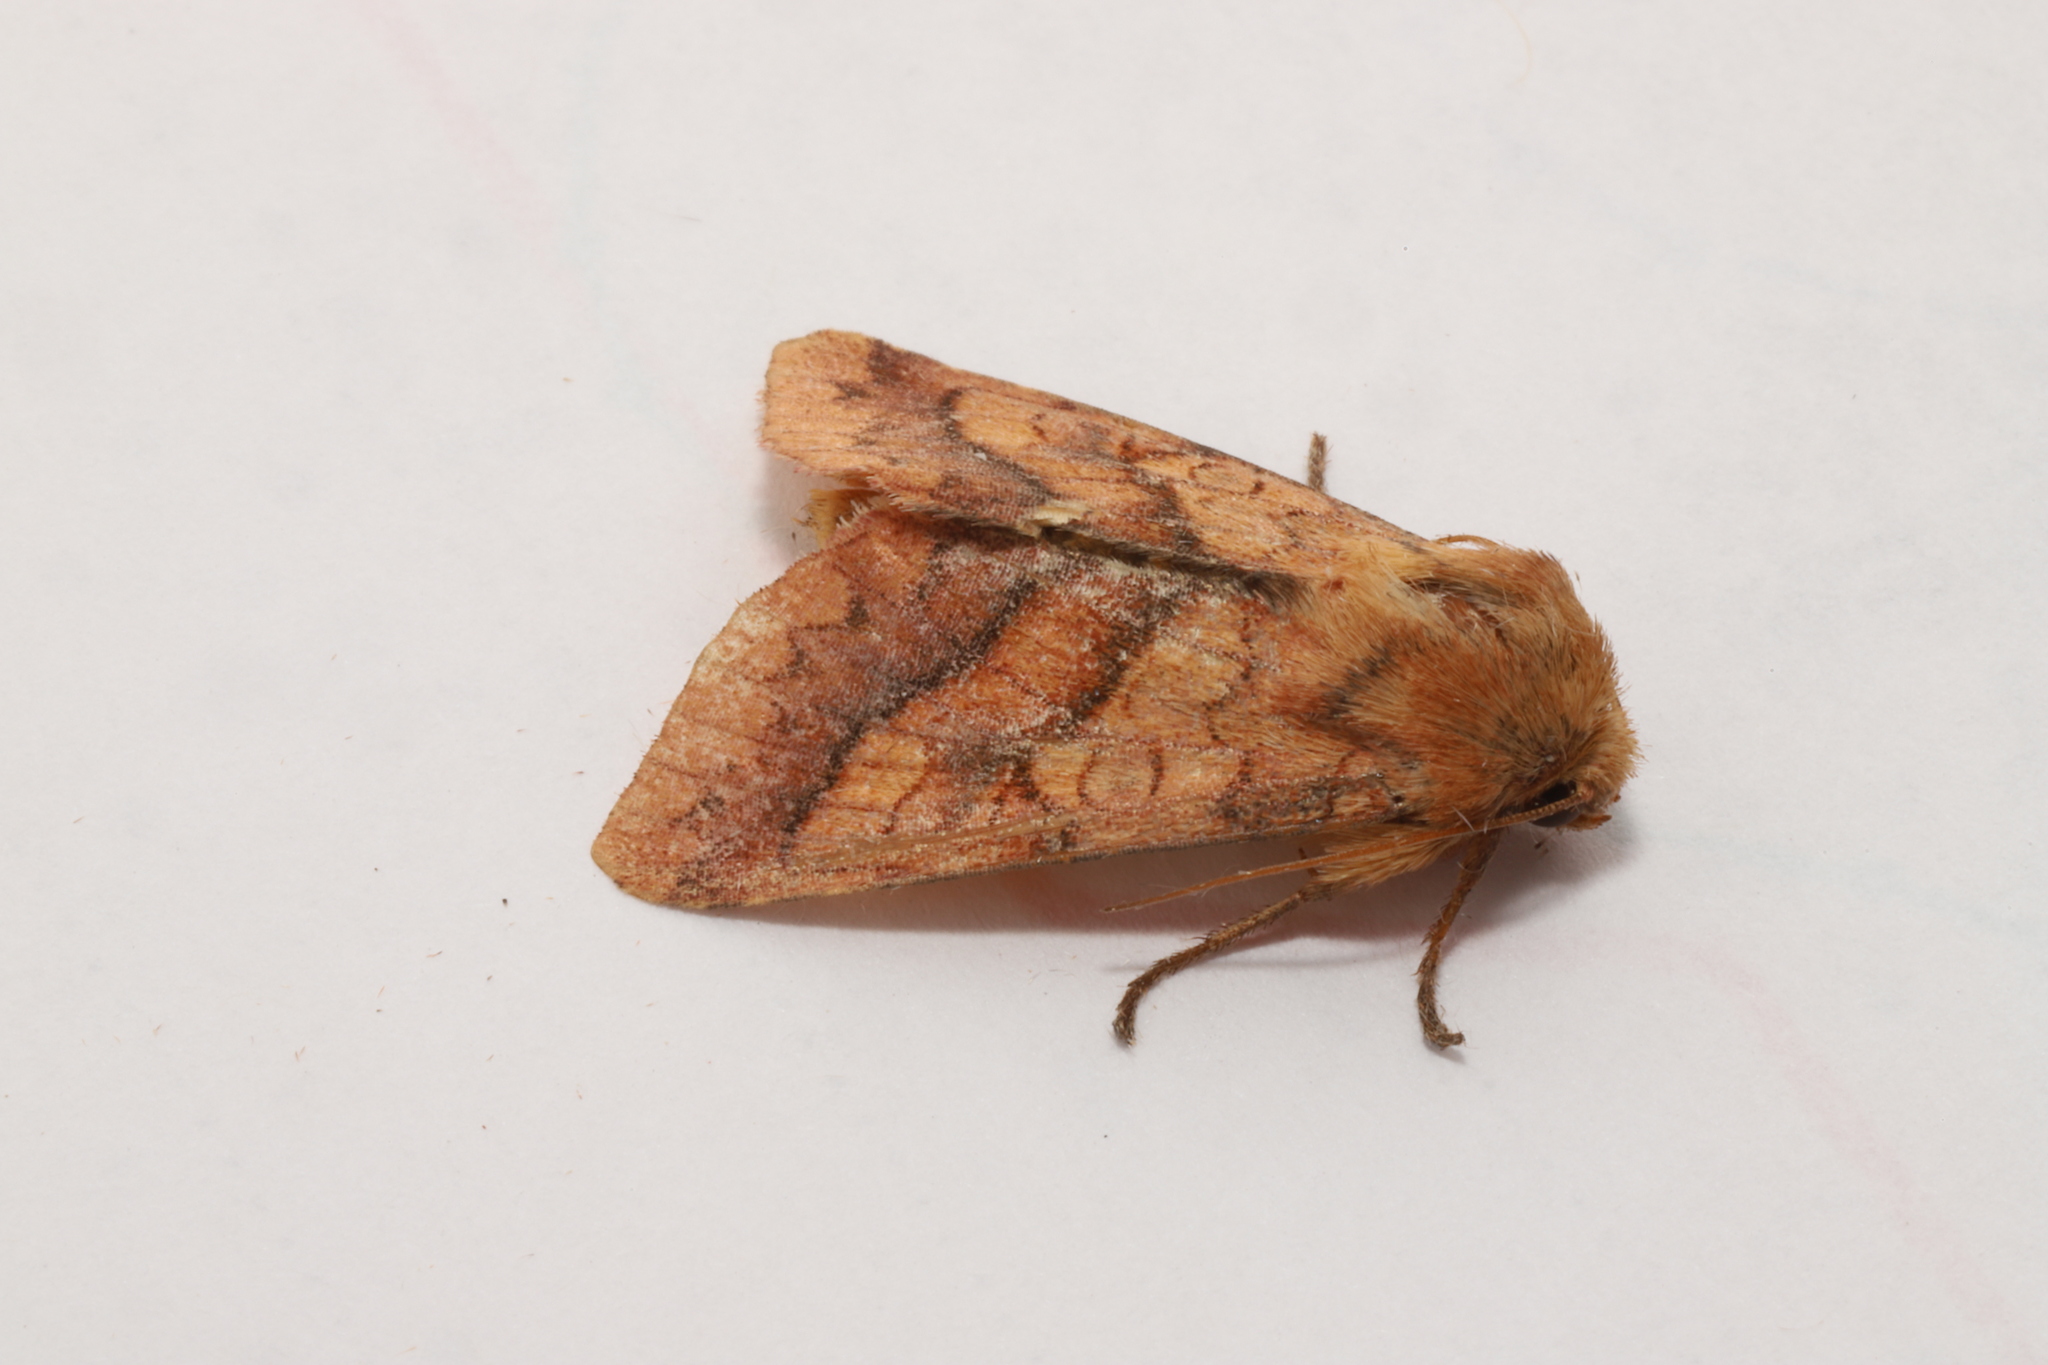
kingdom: Animalia
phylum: Arthropoda
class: Insecta
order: Lepidoptera
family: Noctuidae
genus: Pyrrhia
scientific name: Pyrrhia exprimens
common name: Purple-lined sallow
